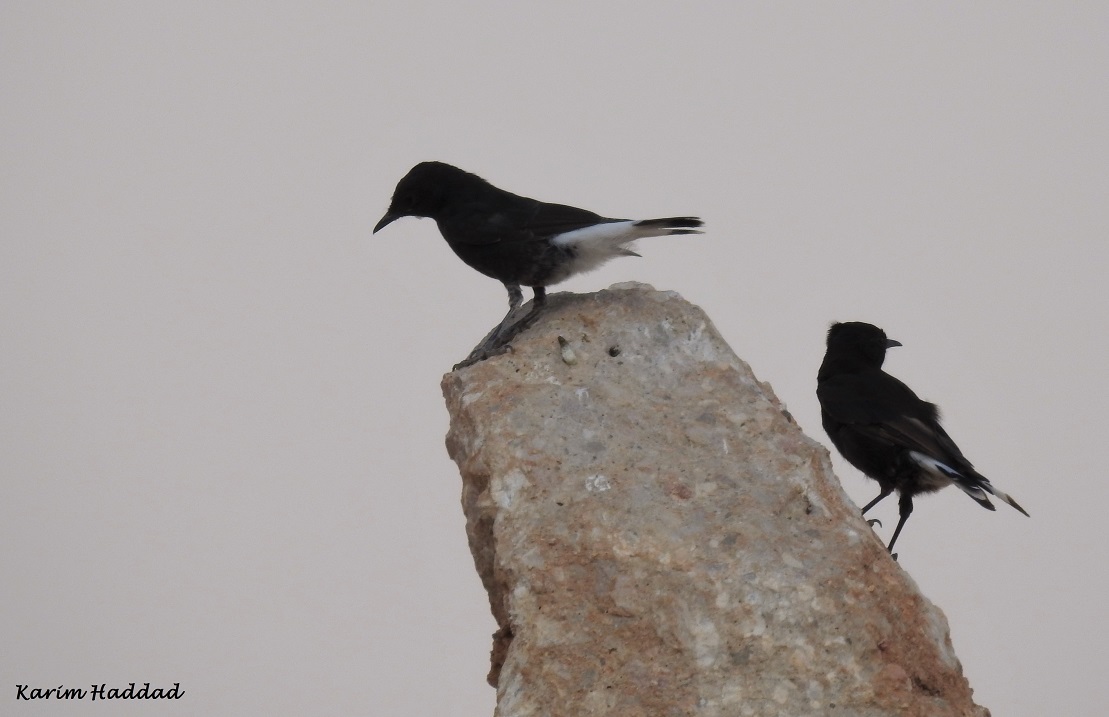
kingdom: Animalia
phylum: Chordata
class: Aves
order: Passeriformes
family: Muscicapidae
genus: Oenanthe
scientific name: Oenanthe leucura
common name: Black wheatear
